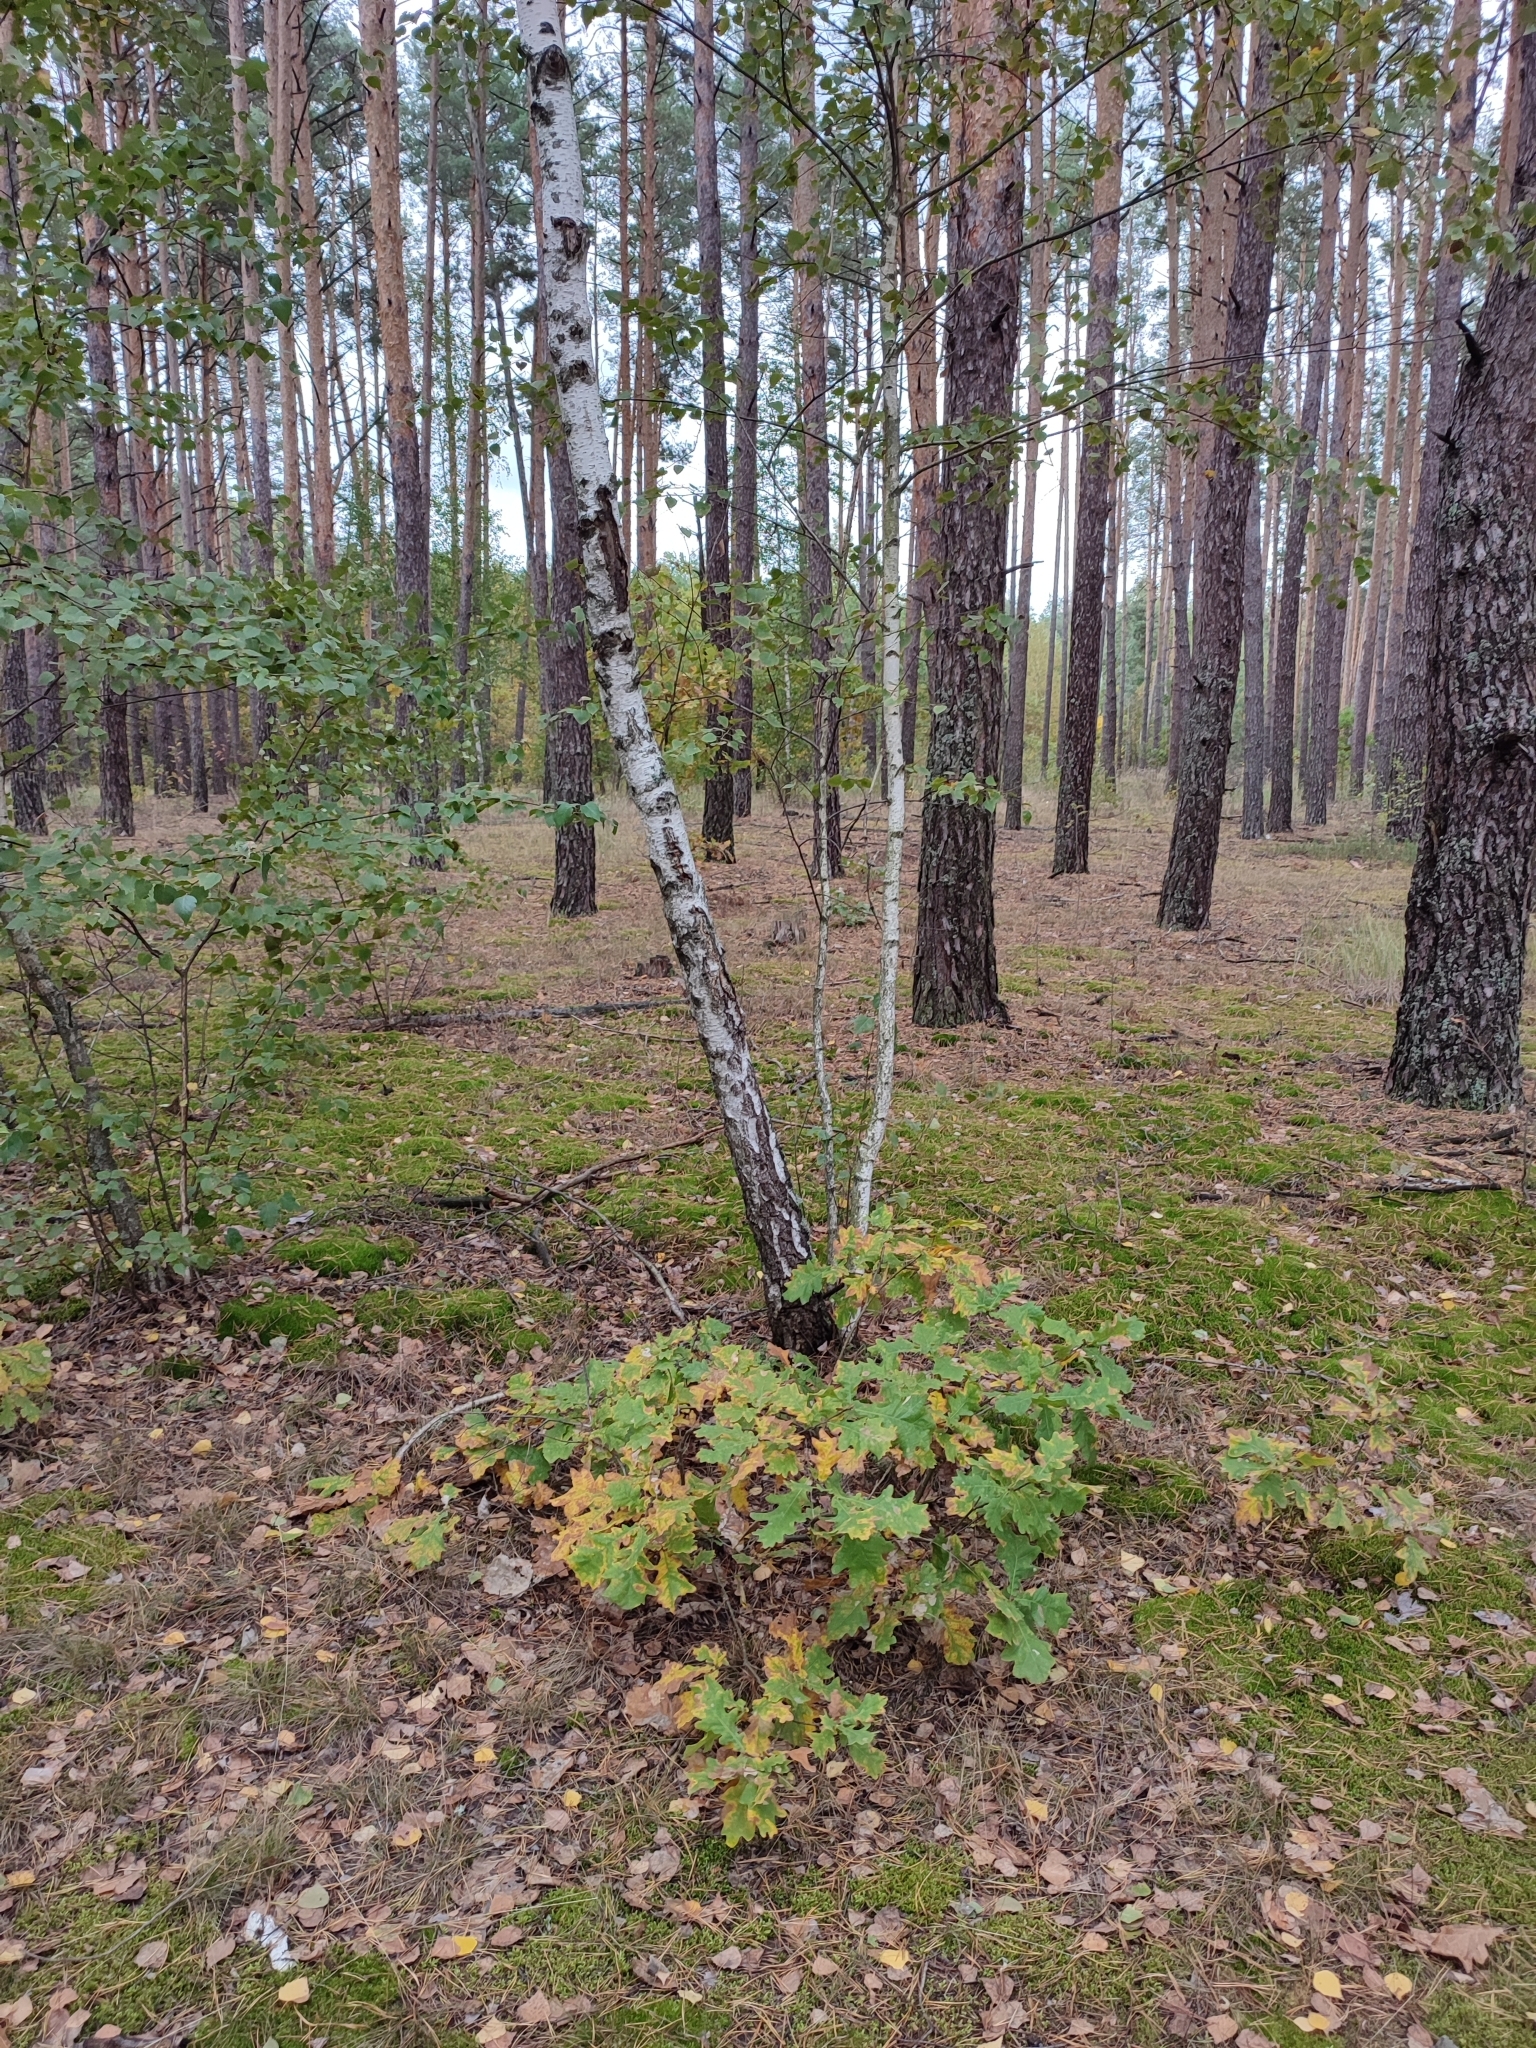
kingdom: Plantae
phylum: Tracheophyta
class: Magnoliopsida
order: Fagales
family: Fagaceae
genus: Quercus
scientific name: Quercus robur
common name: Pedunculate oak
